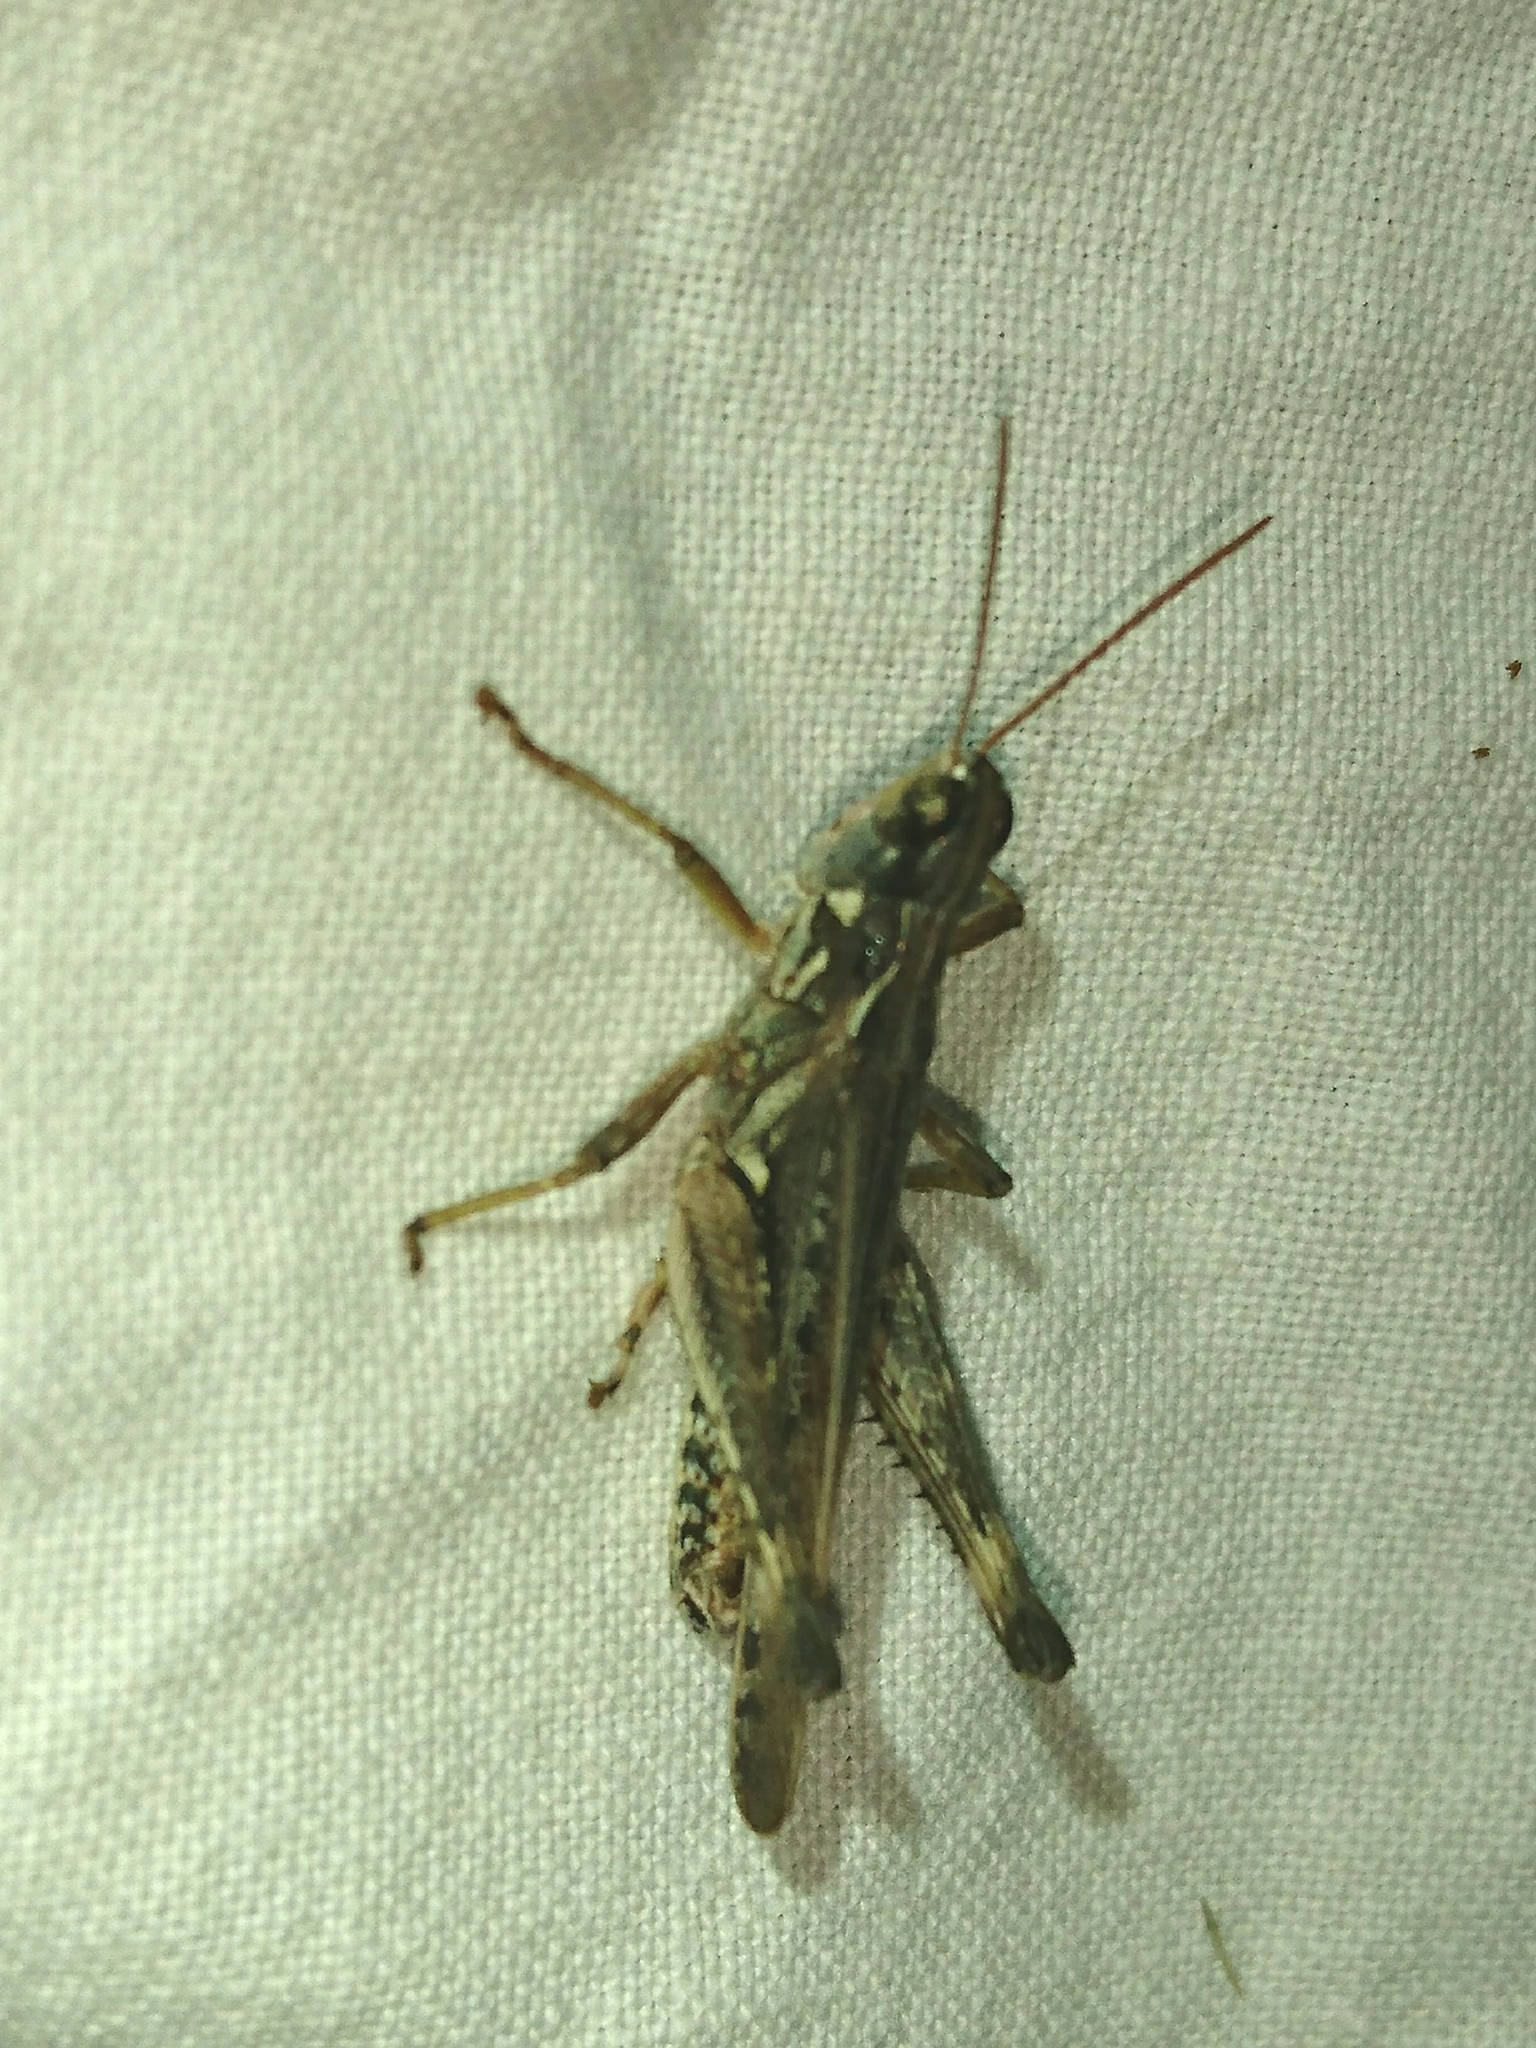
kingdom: Animalia
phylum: Arthropoda
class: Insecta
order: Orthoptera
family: Acrididae
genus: Orphulella
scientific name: Orphulella pelidna
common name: Spotted-wing grasshopper
